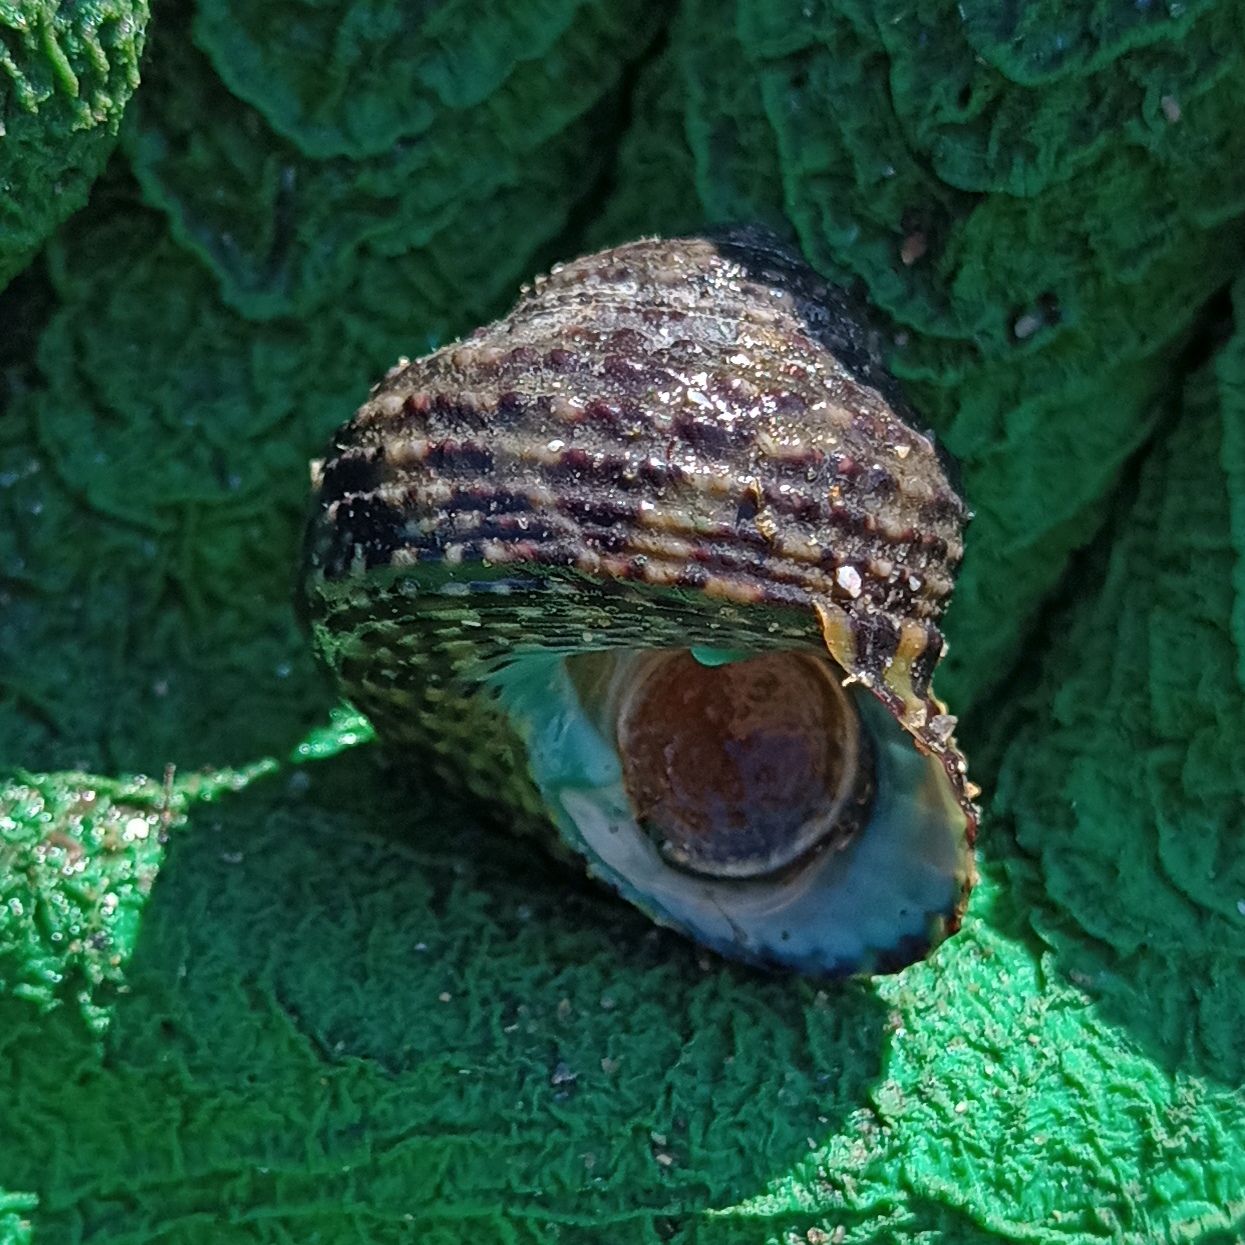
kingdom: Animalia
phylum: Mollusca
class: Gastropoda
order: Trochida
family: Tegulidae
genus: Agathistoma
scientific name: Agathistoma viridulum
